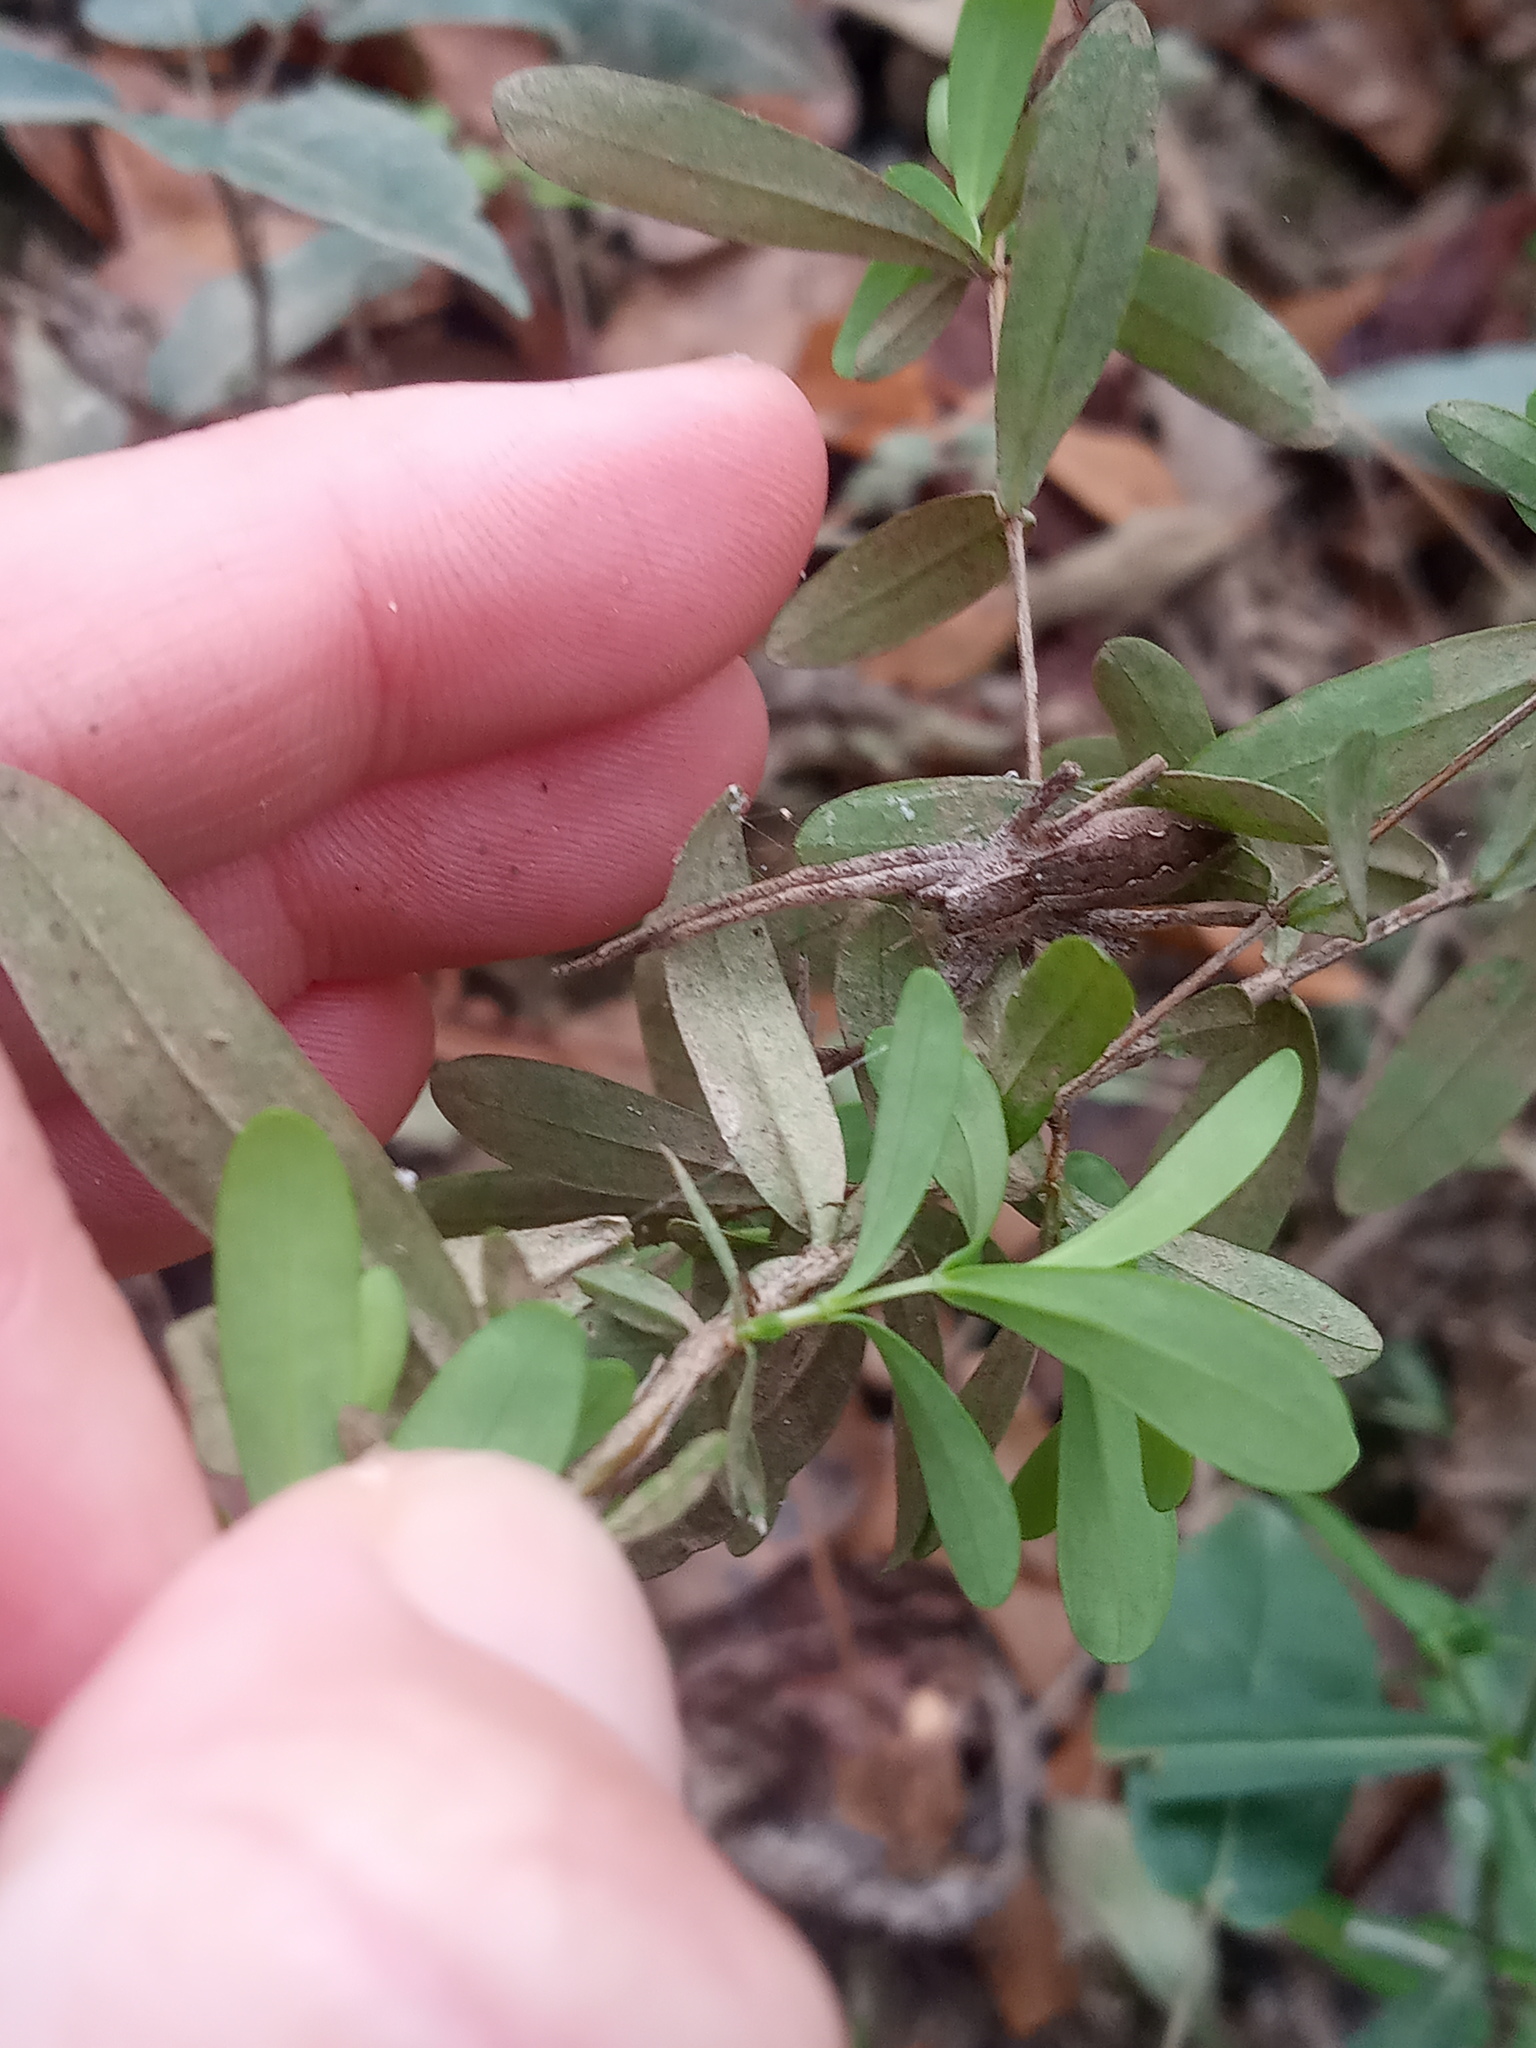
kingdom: Animalia
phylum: Arthropoda
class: Arachnida
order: Araneae
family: Pisauridae
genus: Pisaurina
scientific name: Pisaurina mira
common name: American nursery web spider
